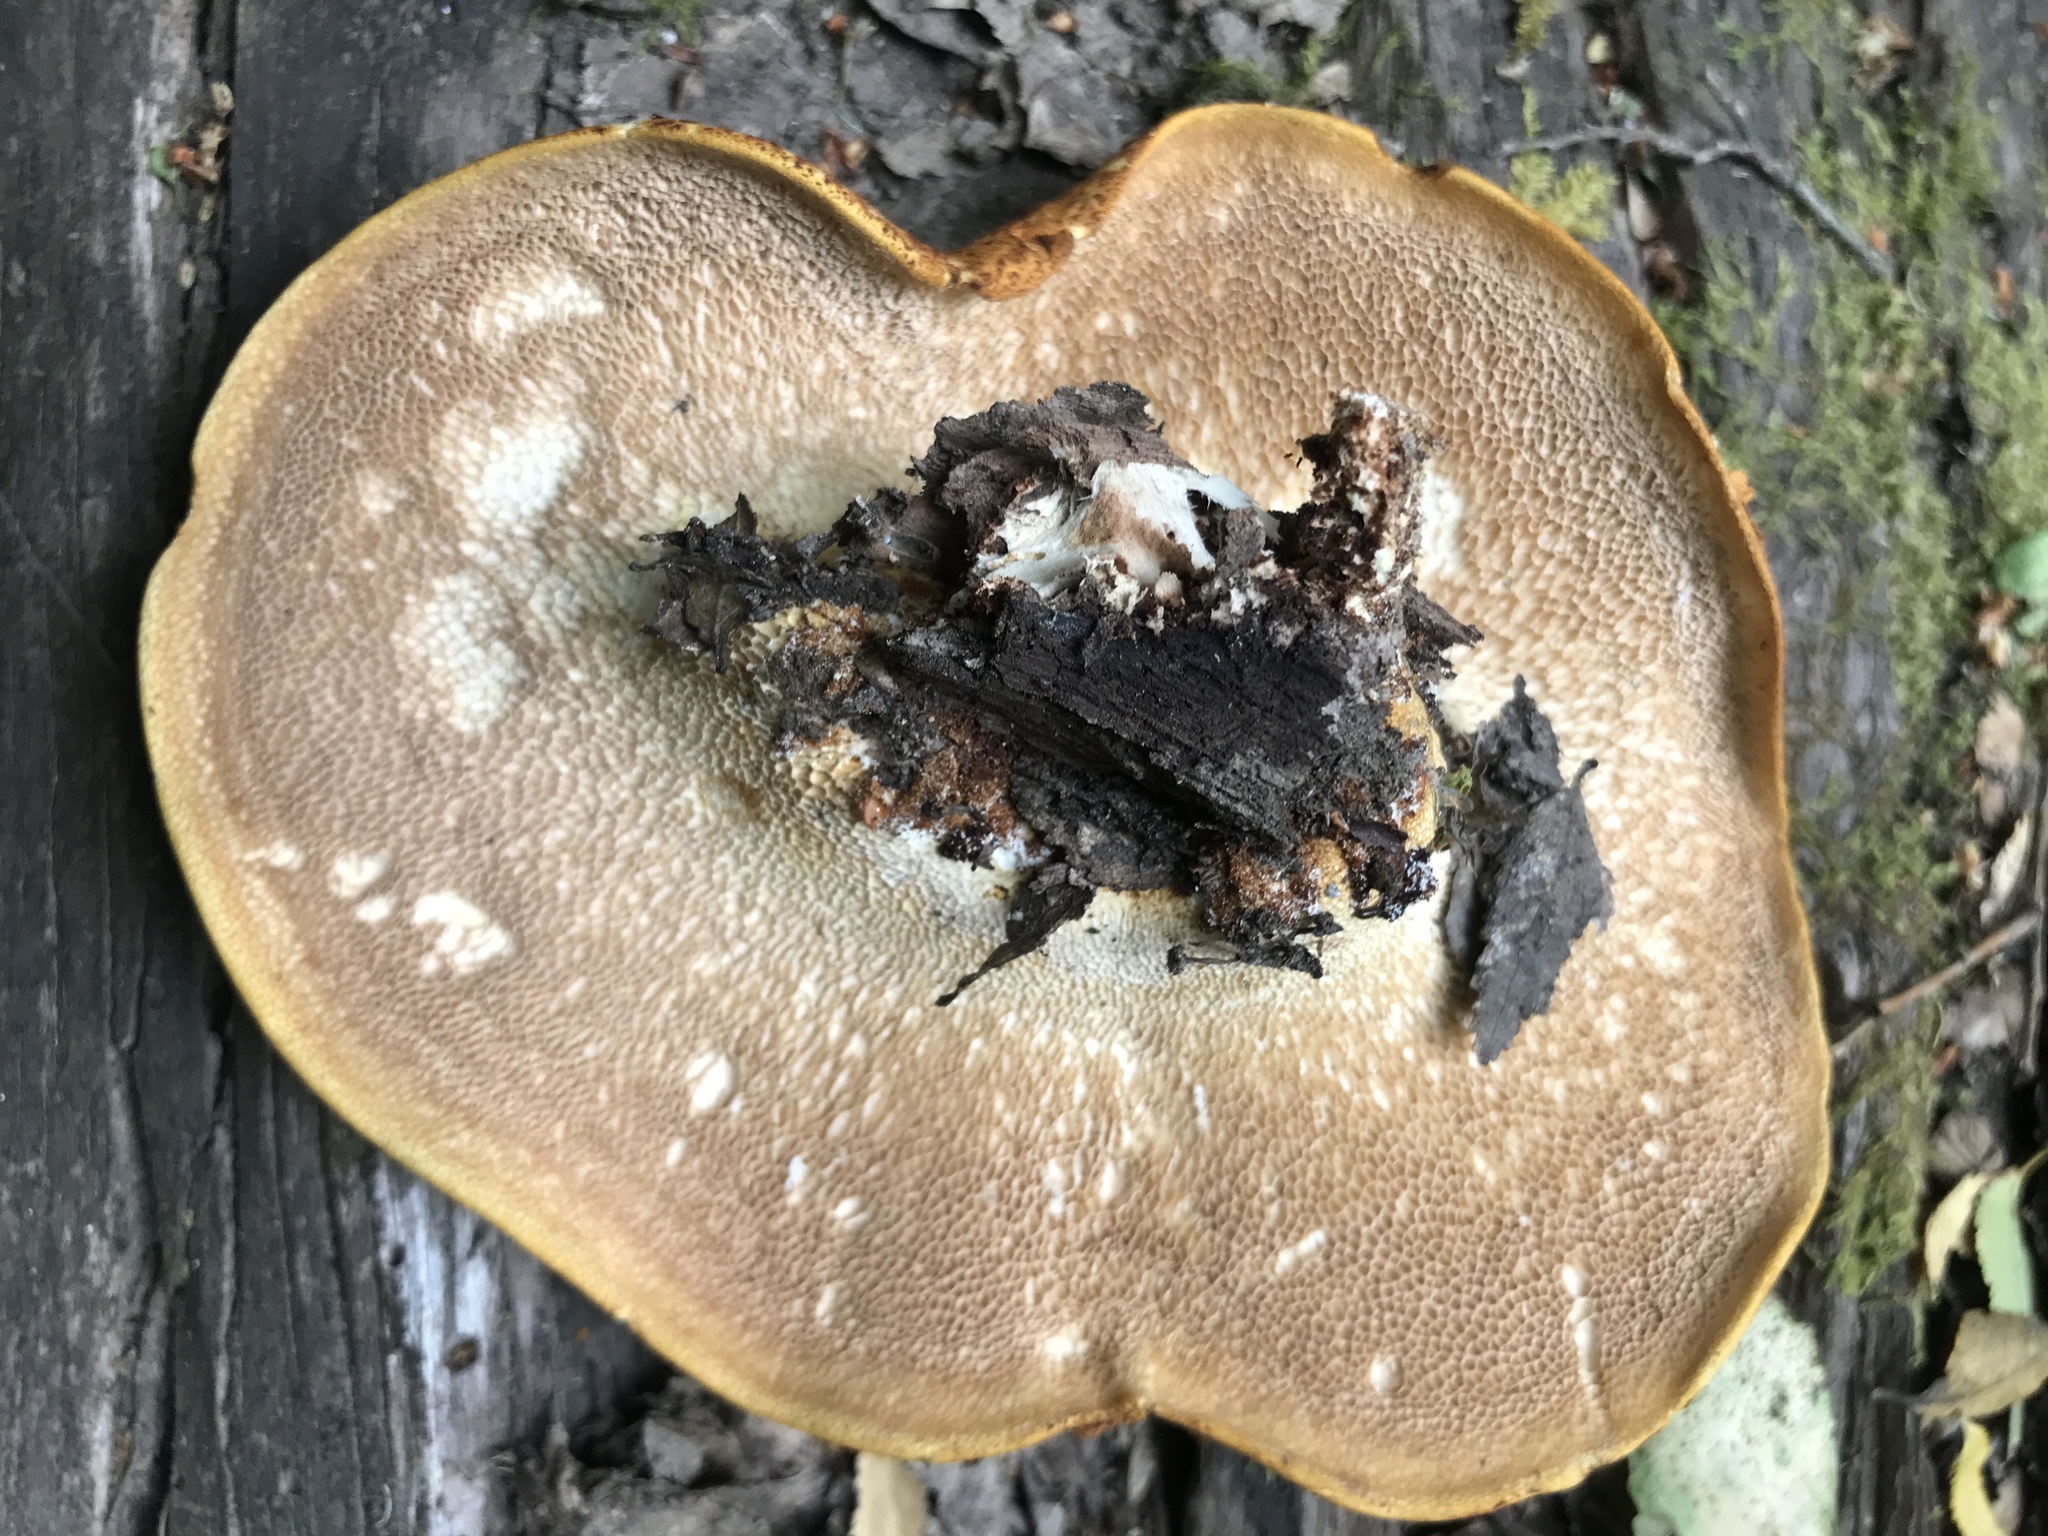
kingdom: Fungi
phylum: Basidiomycota
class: Agaricomycetes
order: Polyporales
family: Fomitopsidaceae
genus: Fomitopsis
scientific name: Fomitopsis
